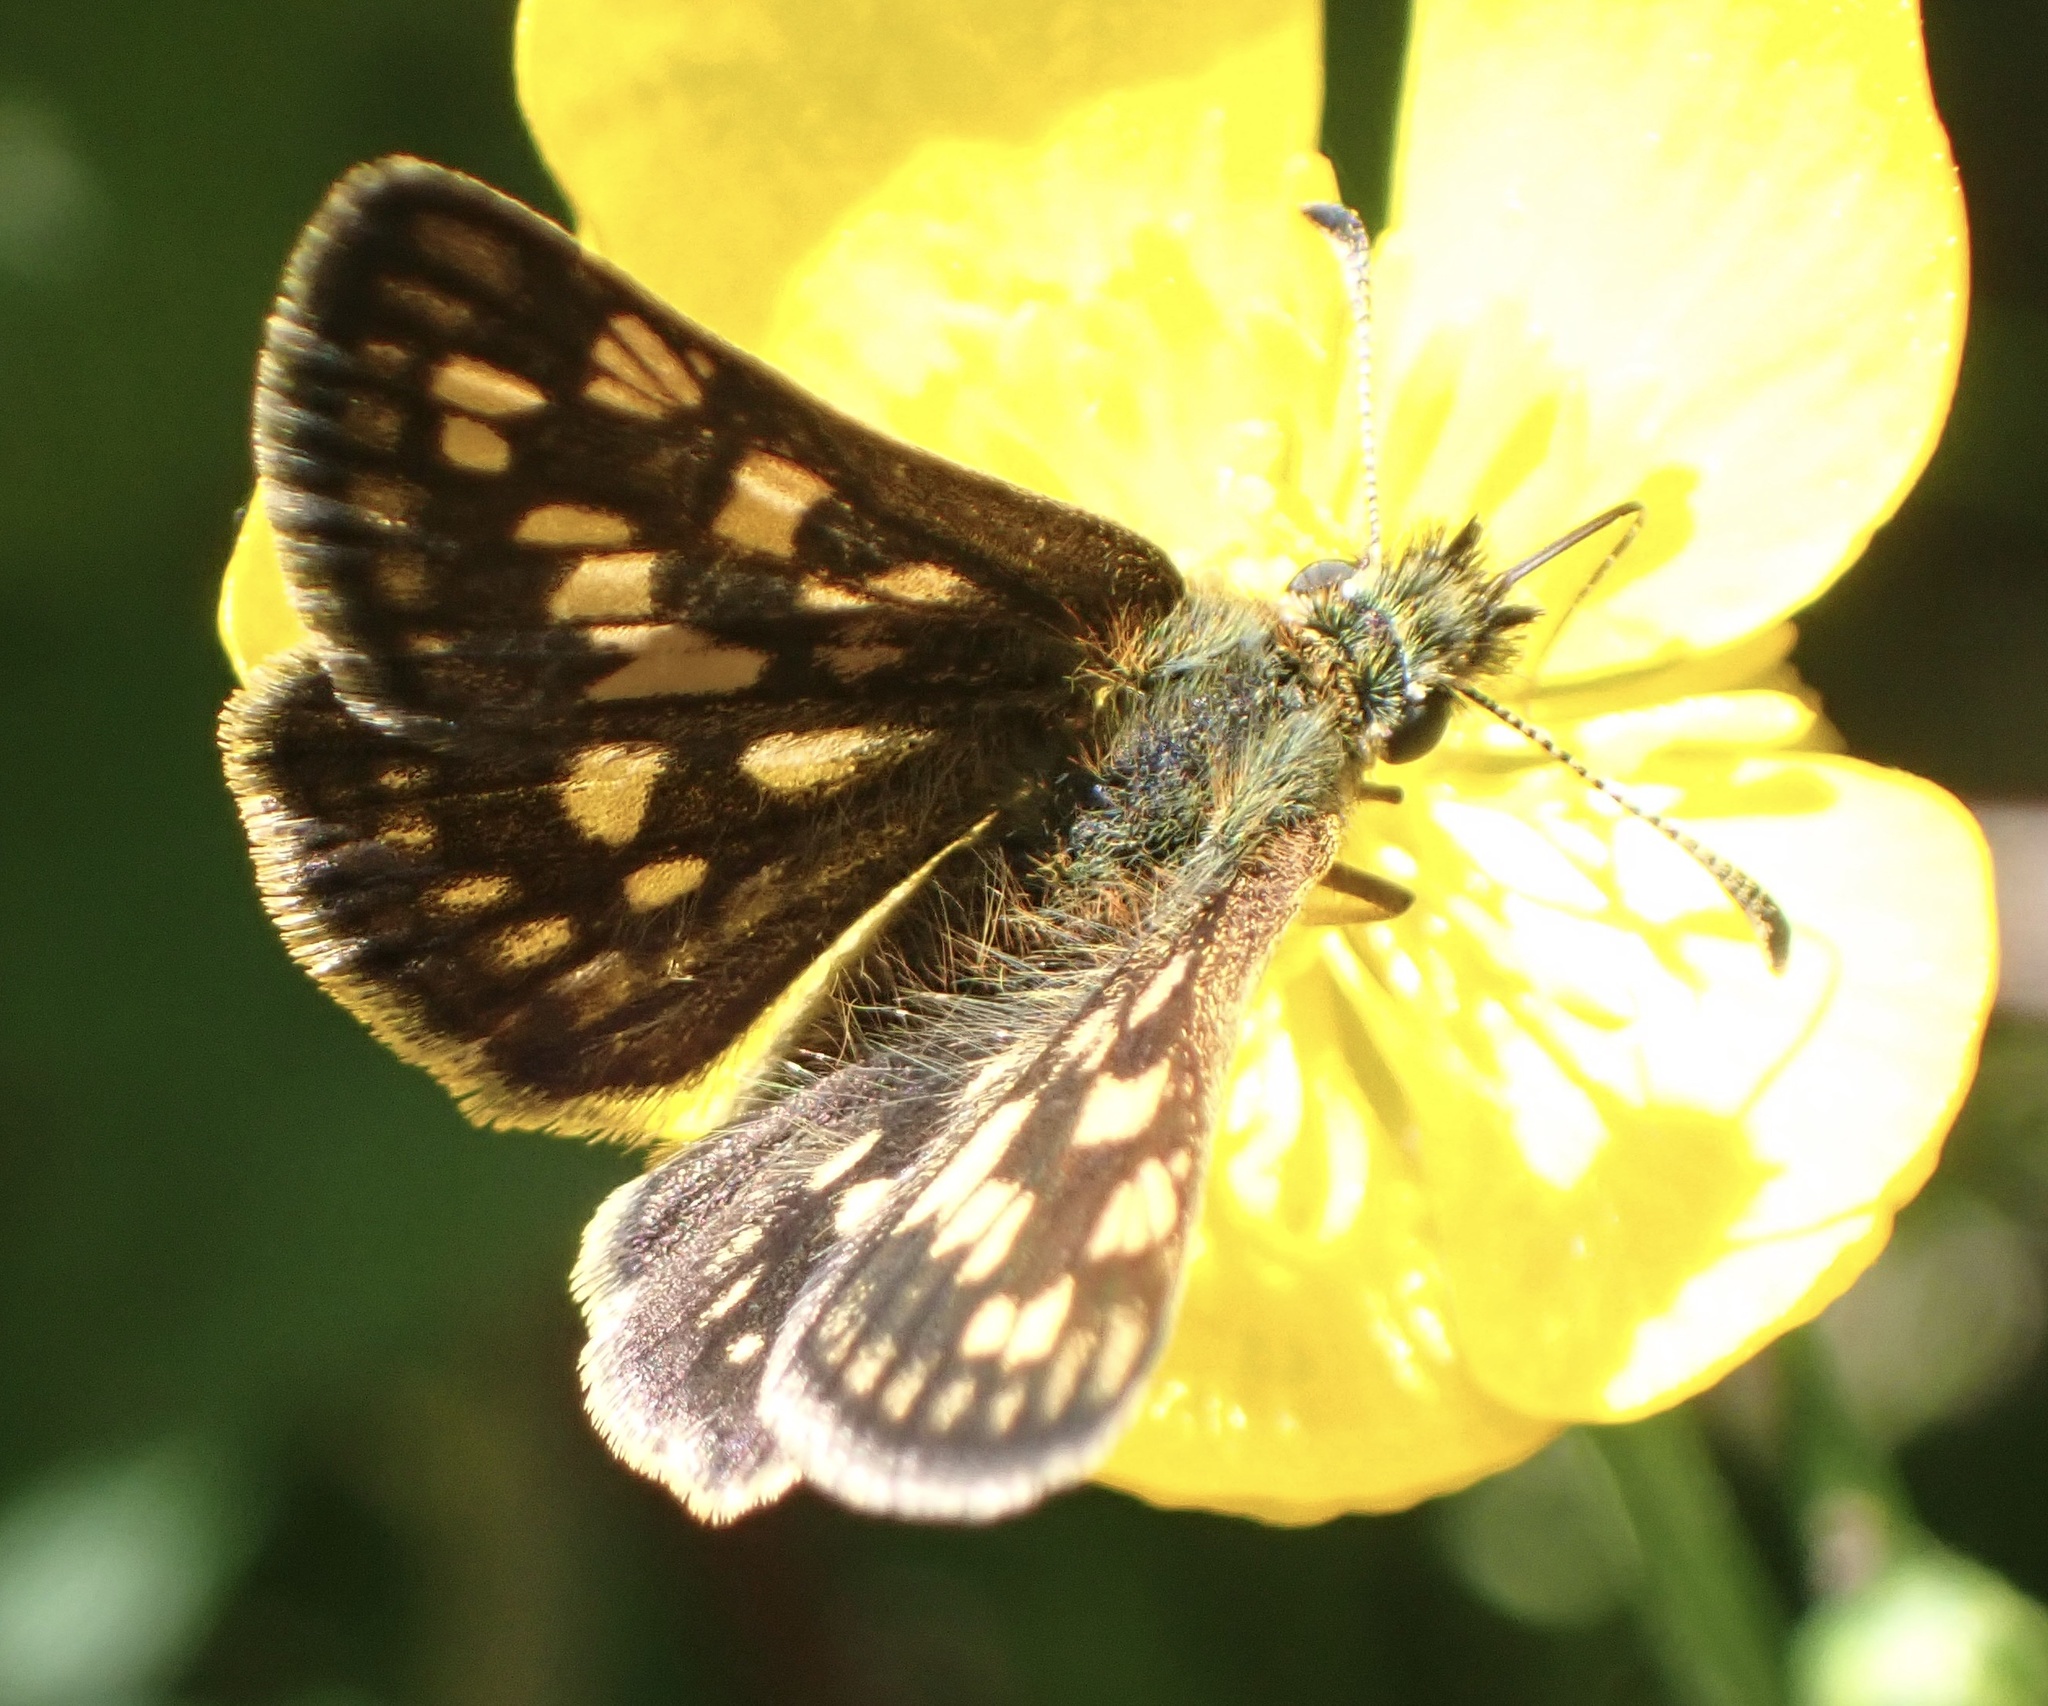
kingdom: Animalia
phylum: Arthropoda
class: Insecta
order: Lepidoptera
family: Hesperiidae
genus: Carterocephalus
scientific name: Carterocephalus palaemon
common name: Chequered skipper
